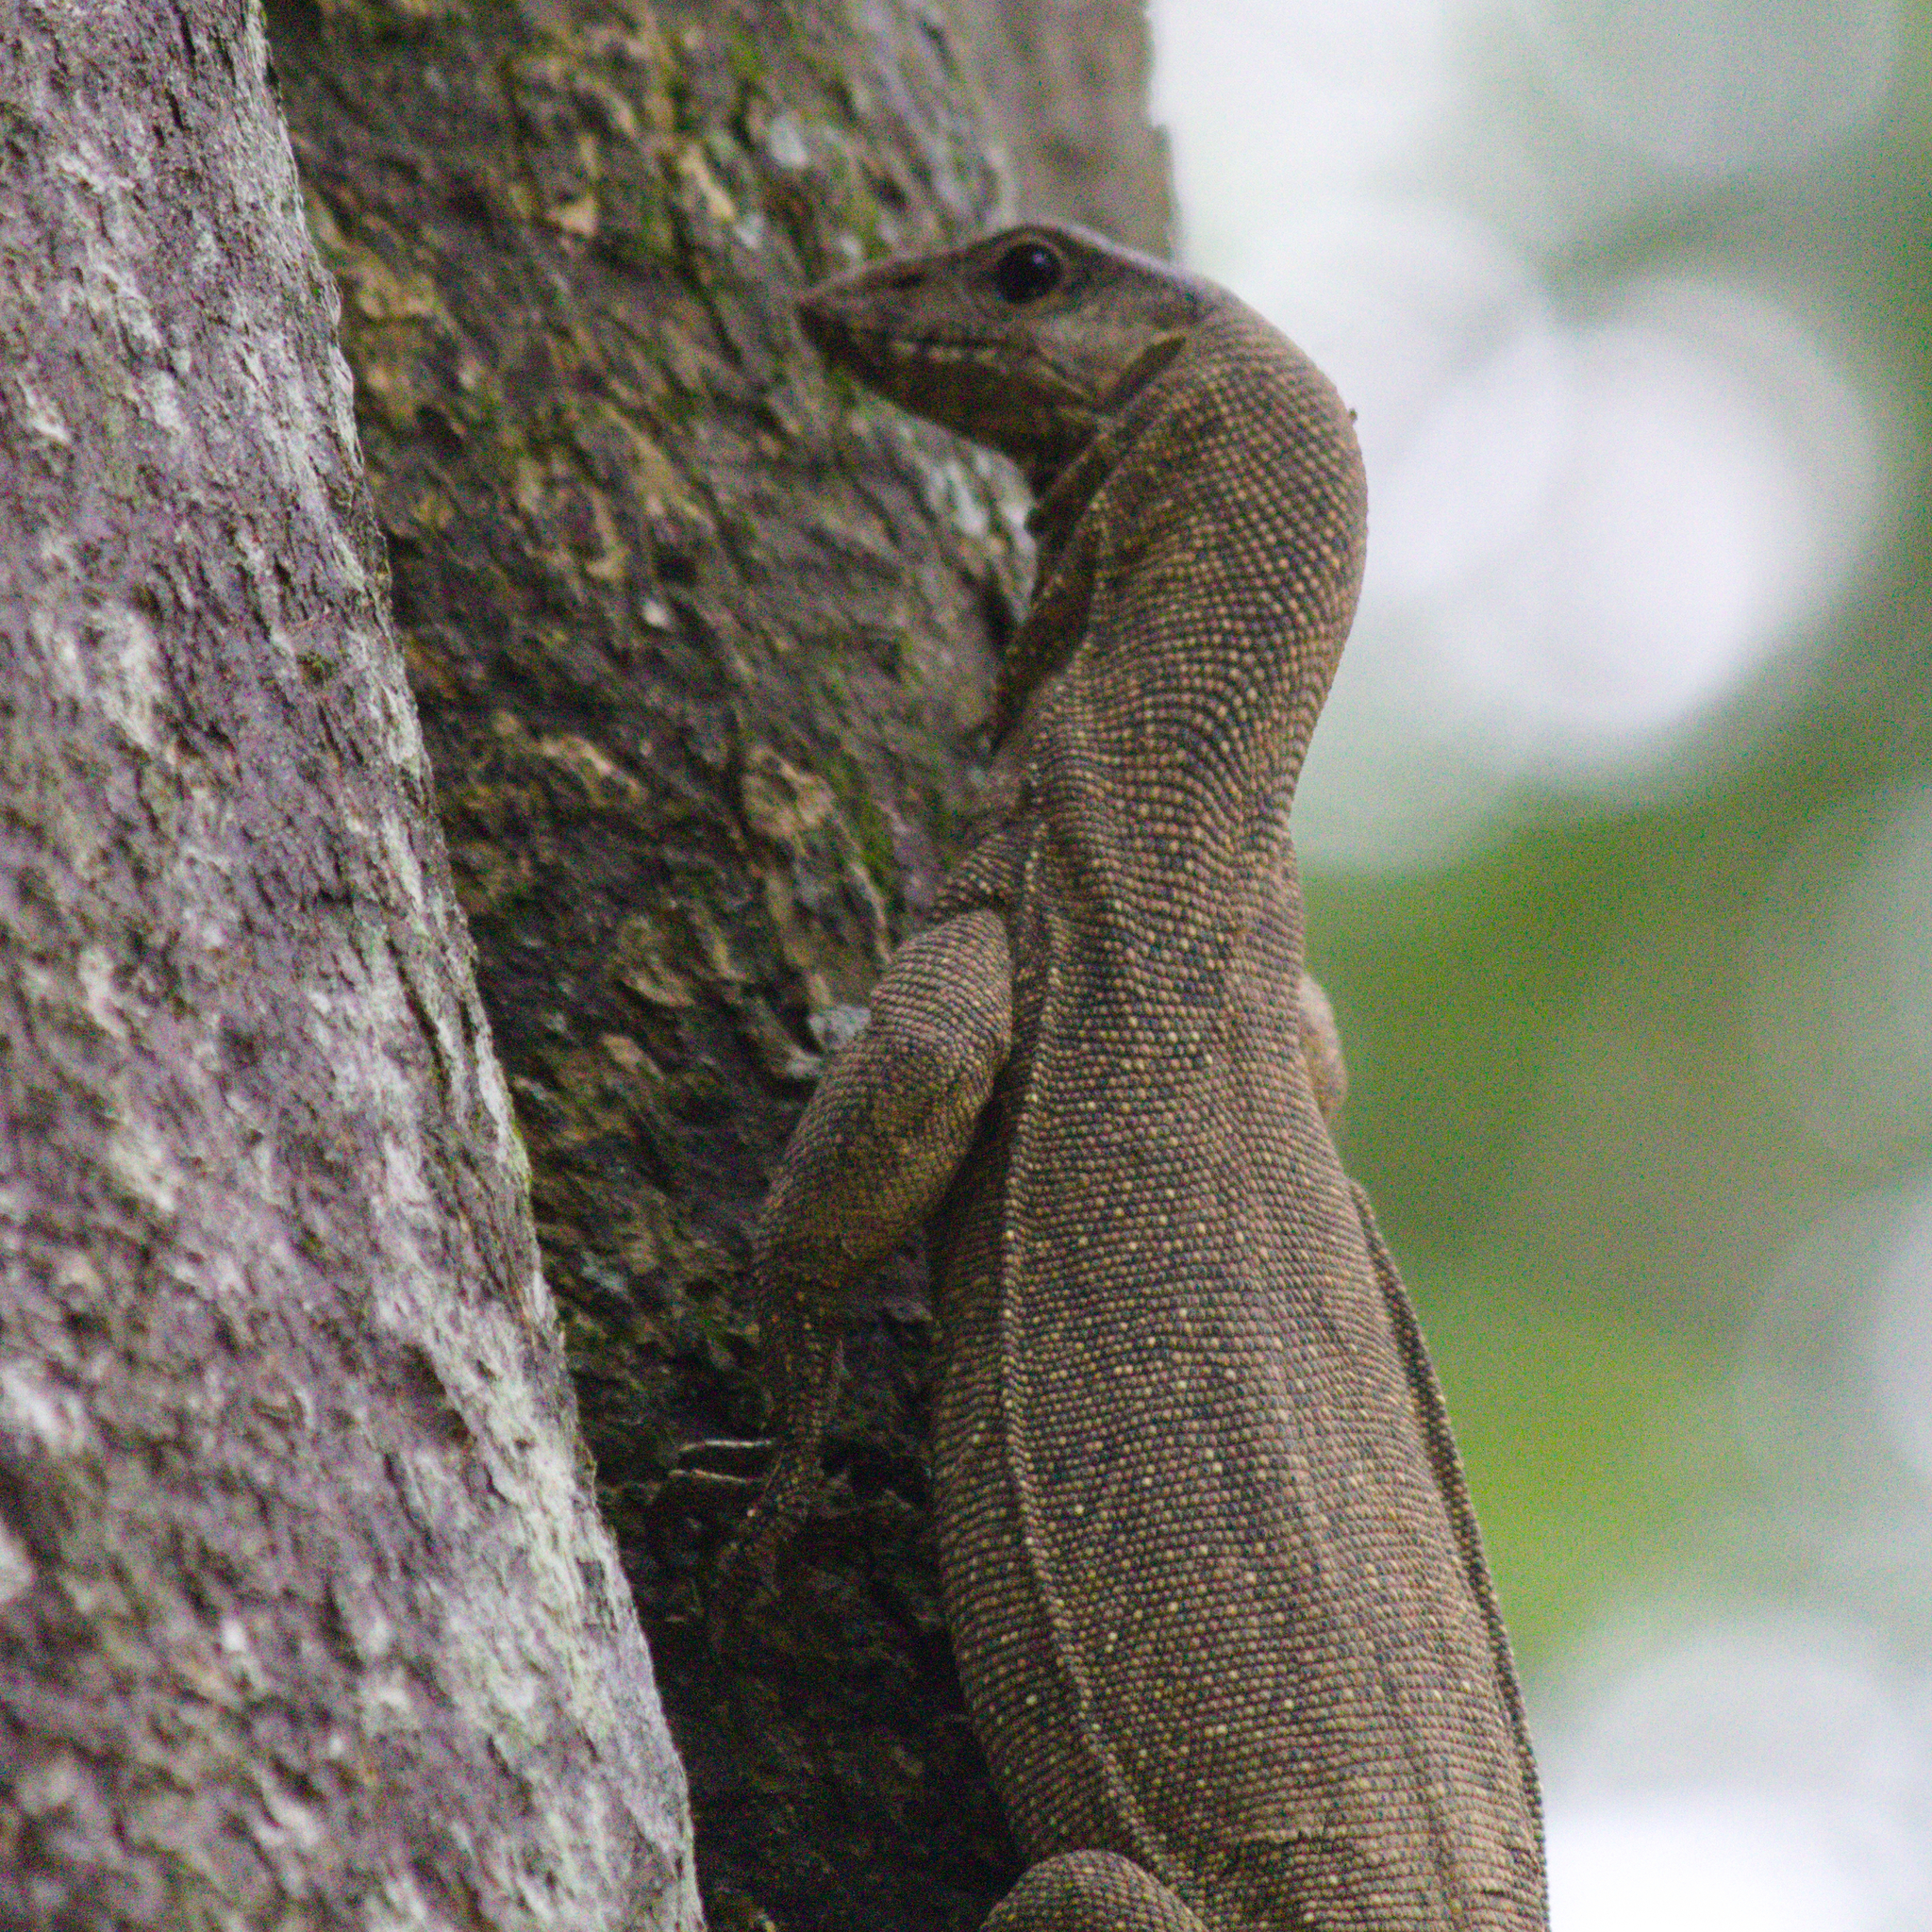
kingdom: Animalia
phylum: Chordata
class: Squamata
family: Varanidae
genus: Varanus
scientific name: Varanus nebulosus
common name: Clouded monitor
